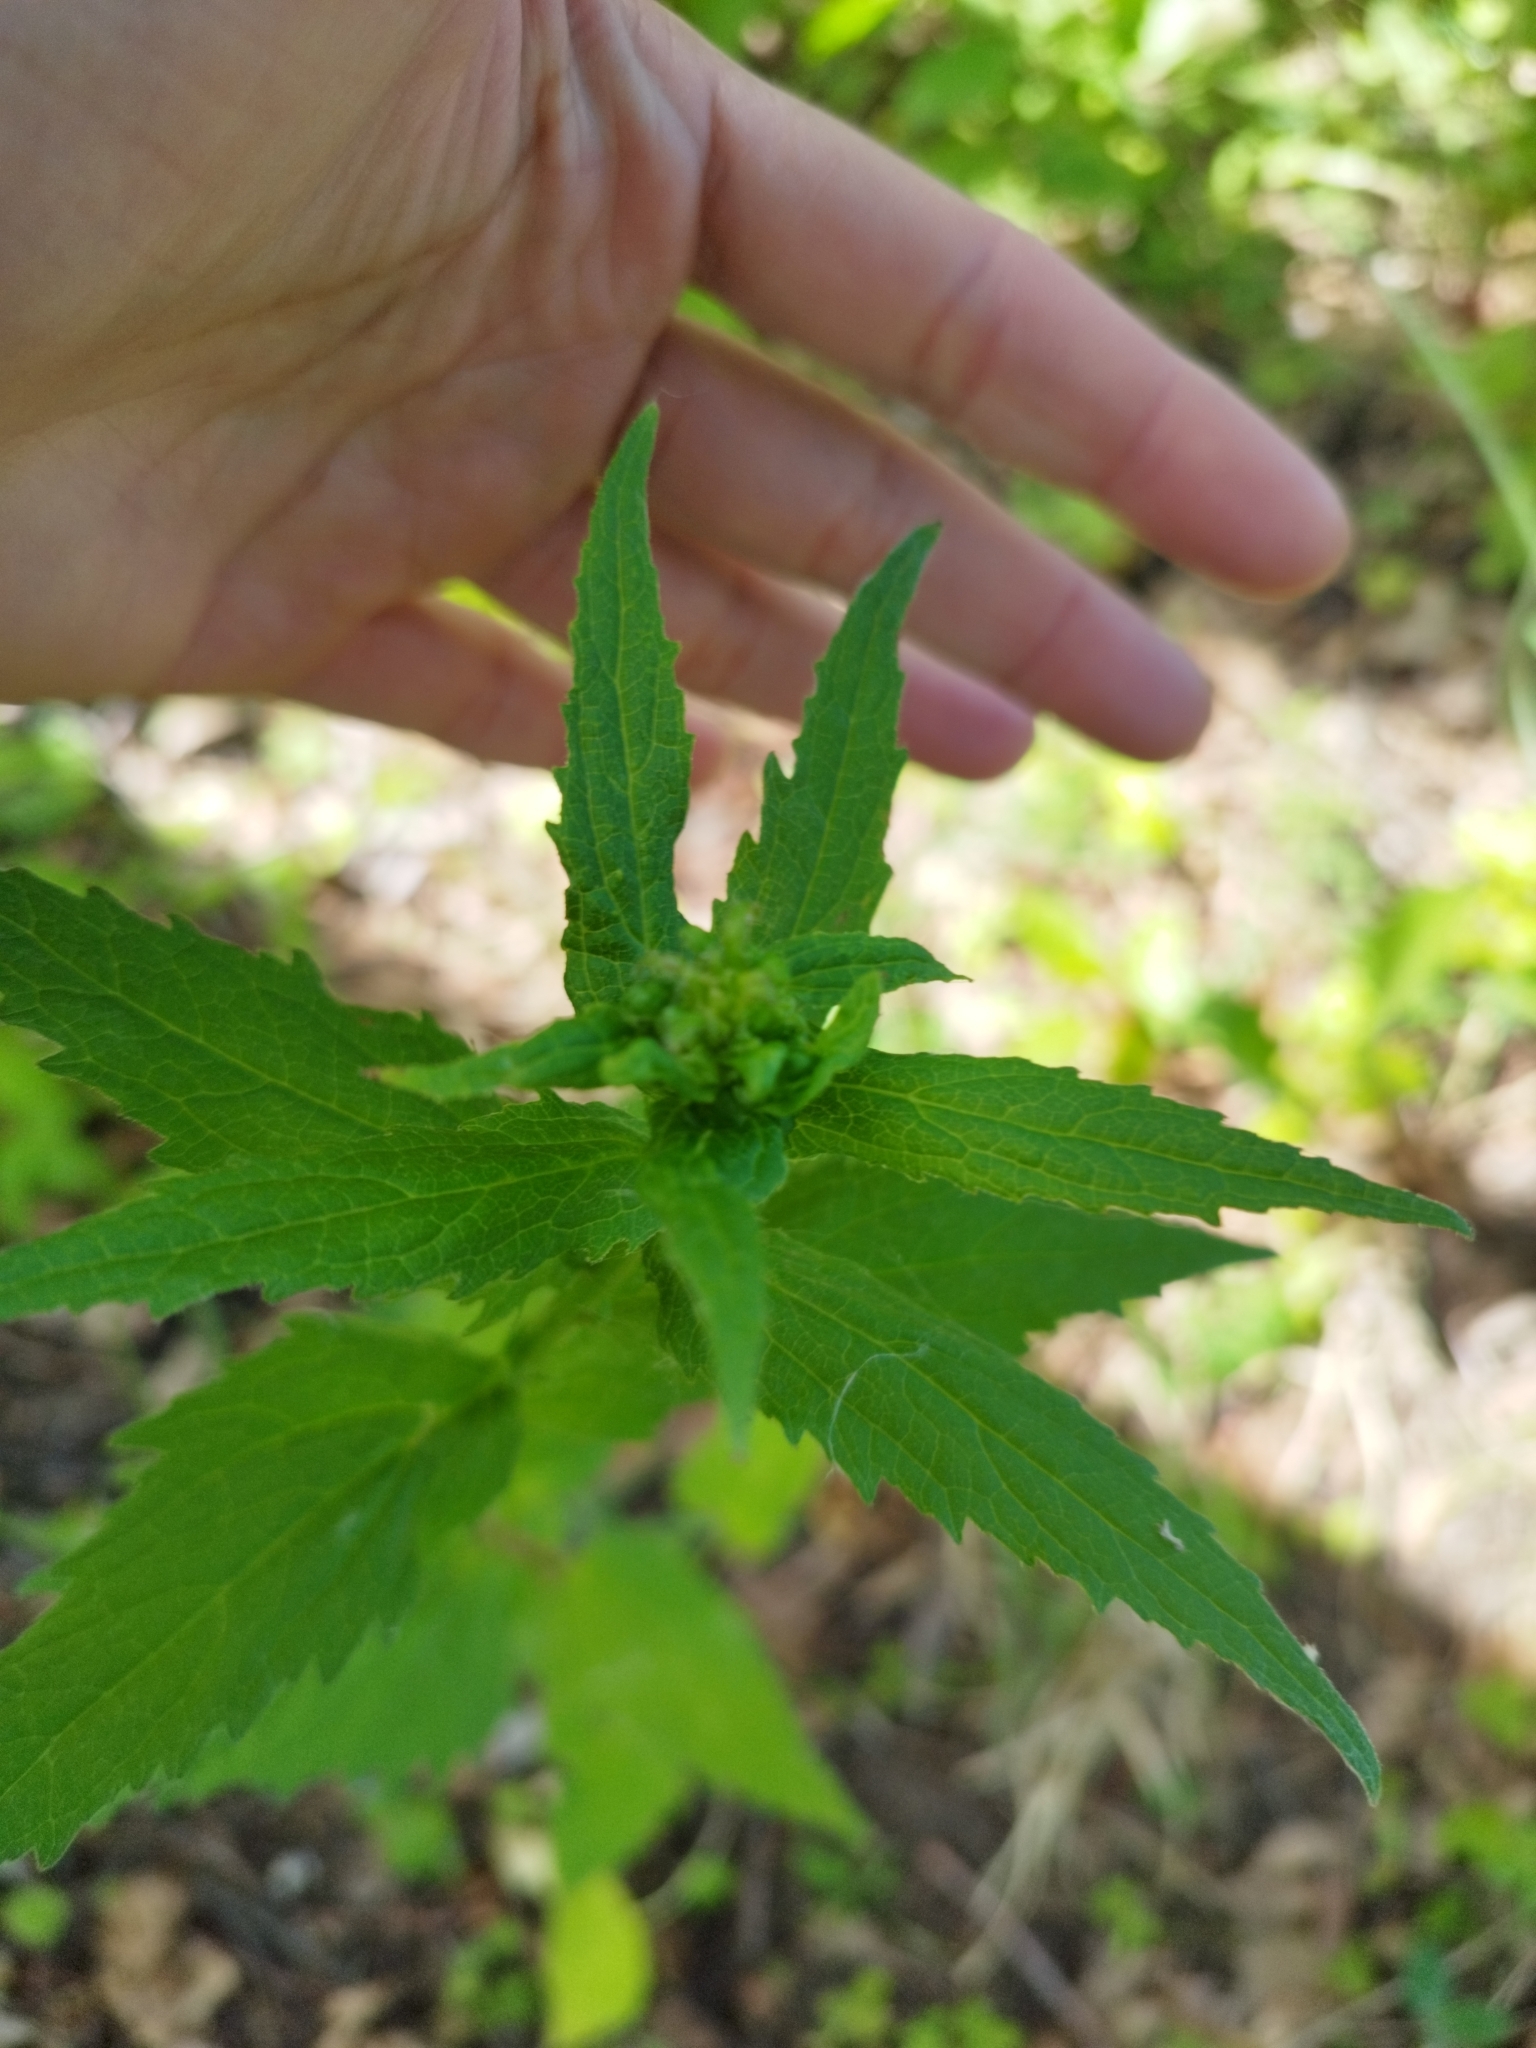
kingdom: Plantae
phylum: Tracheophyta
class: Magnoliopsida
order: Asterales
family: Campanulaceae
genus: Campanula
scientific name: Campanula trachelium
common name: Nettle-leaved bellflower
